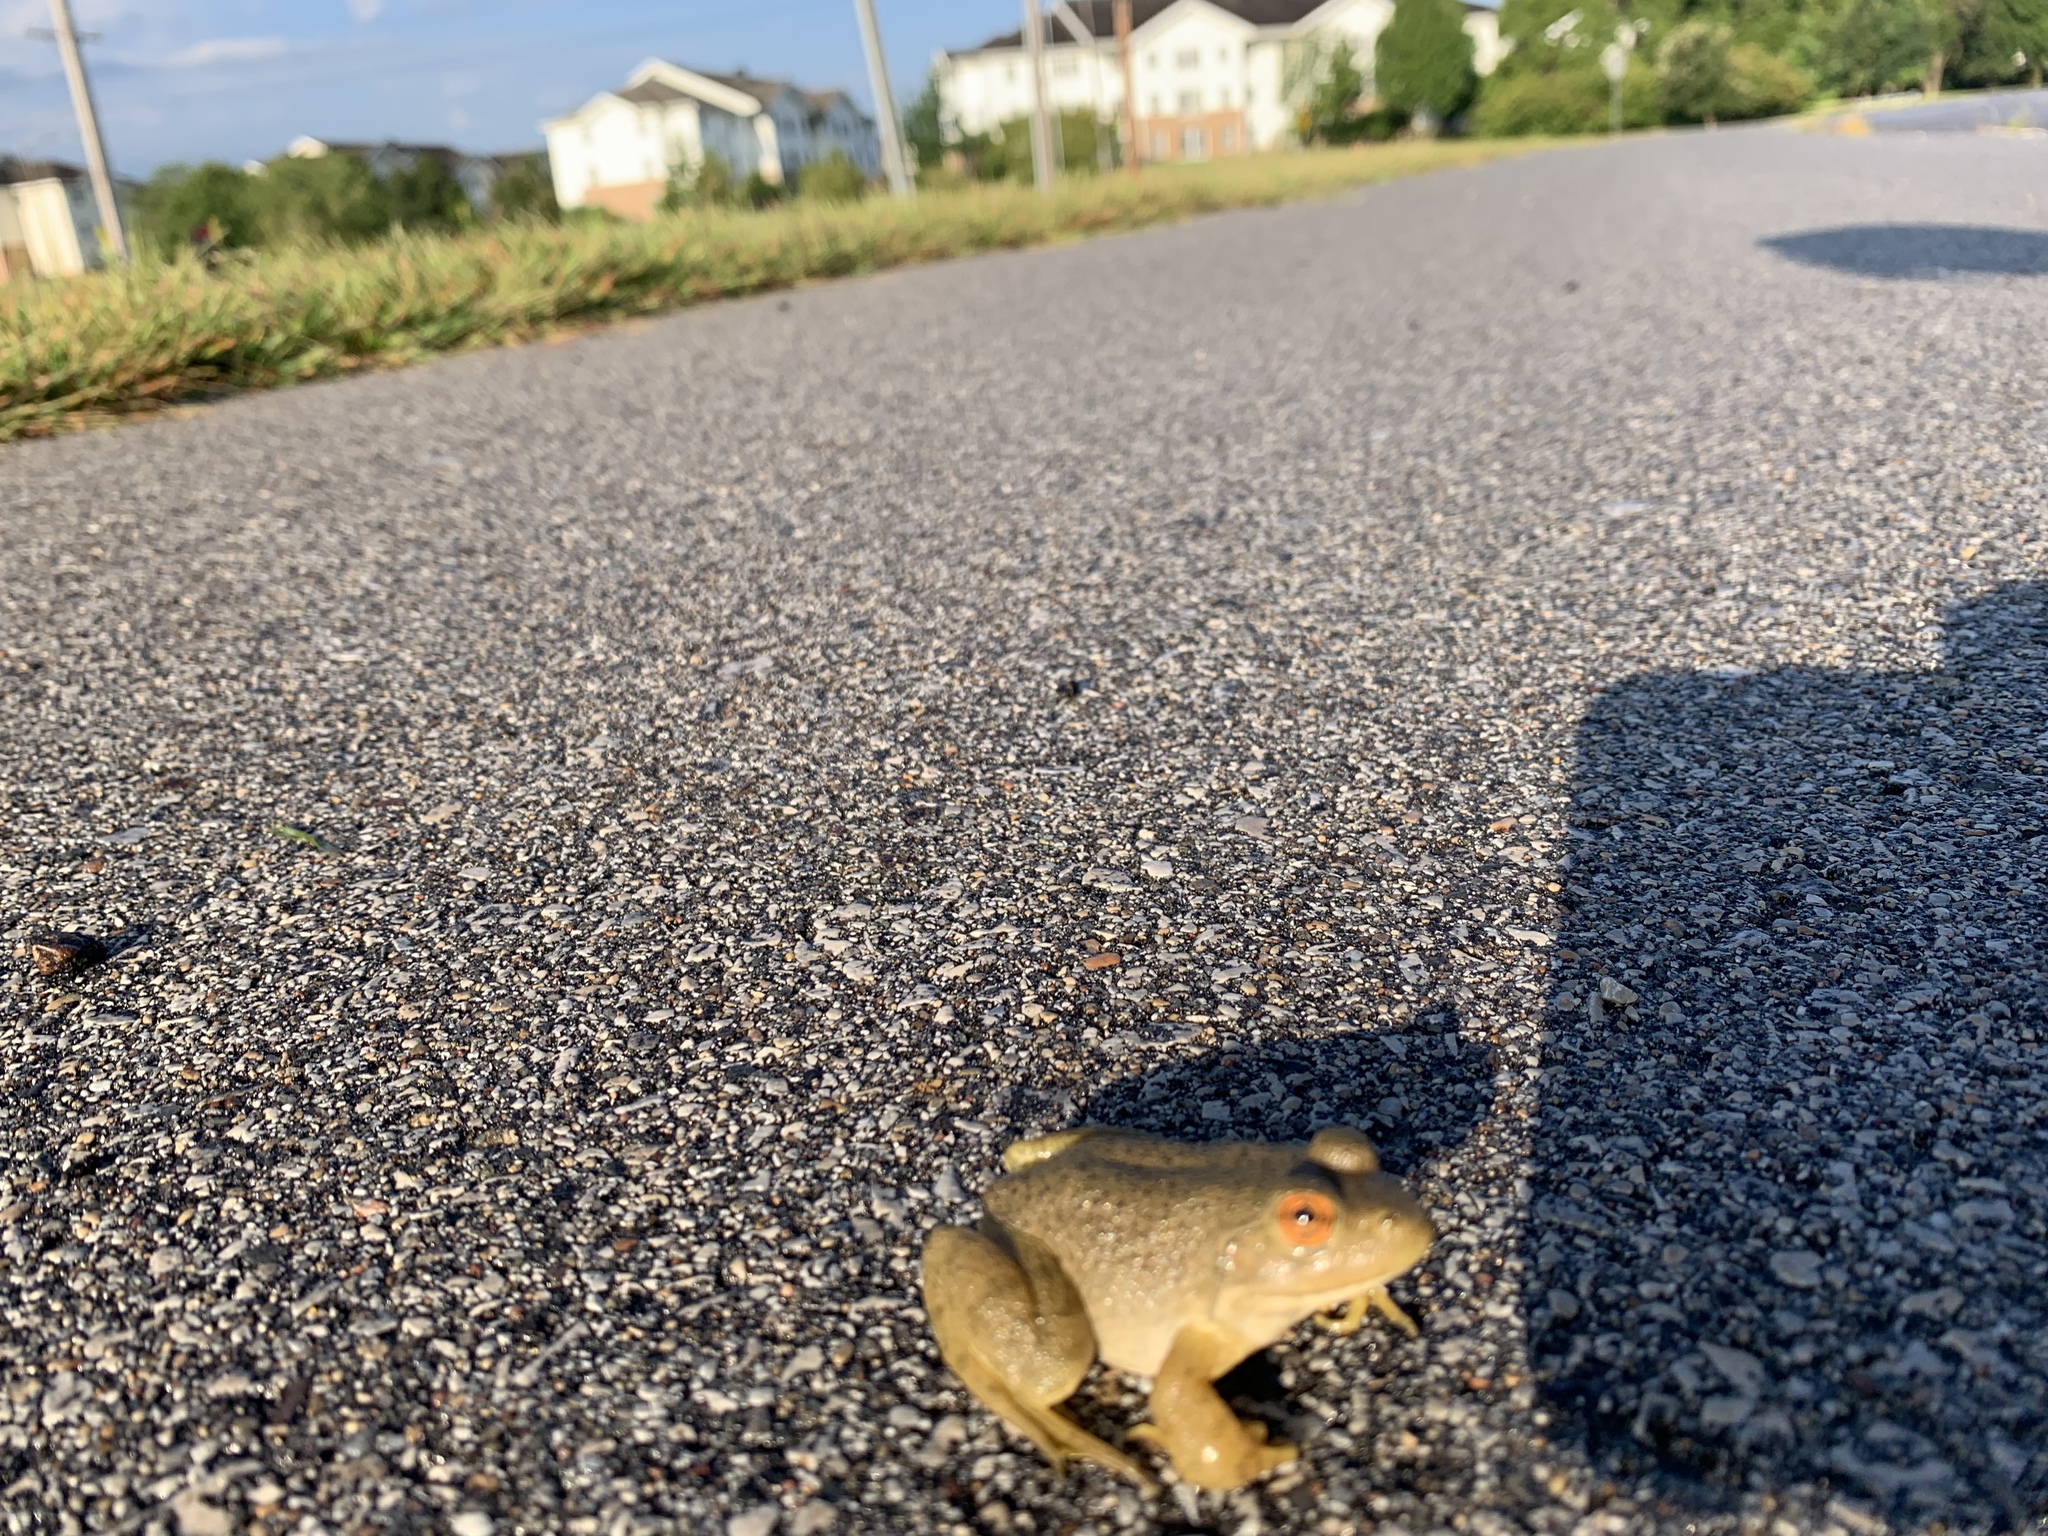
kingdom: Animalia
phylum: Chordata
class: Amphibia
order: Anura
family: Ranidae
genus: Lithobates
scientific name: Lithobates catesbeianus
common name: American bullfrog
